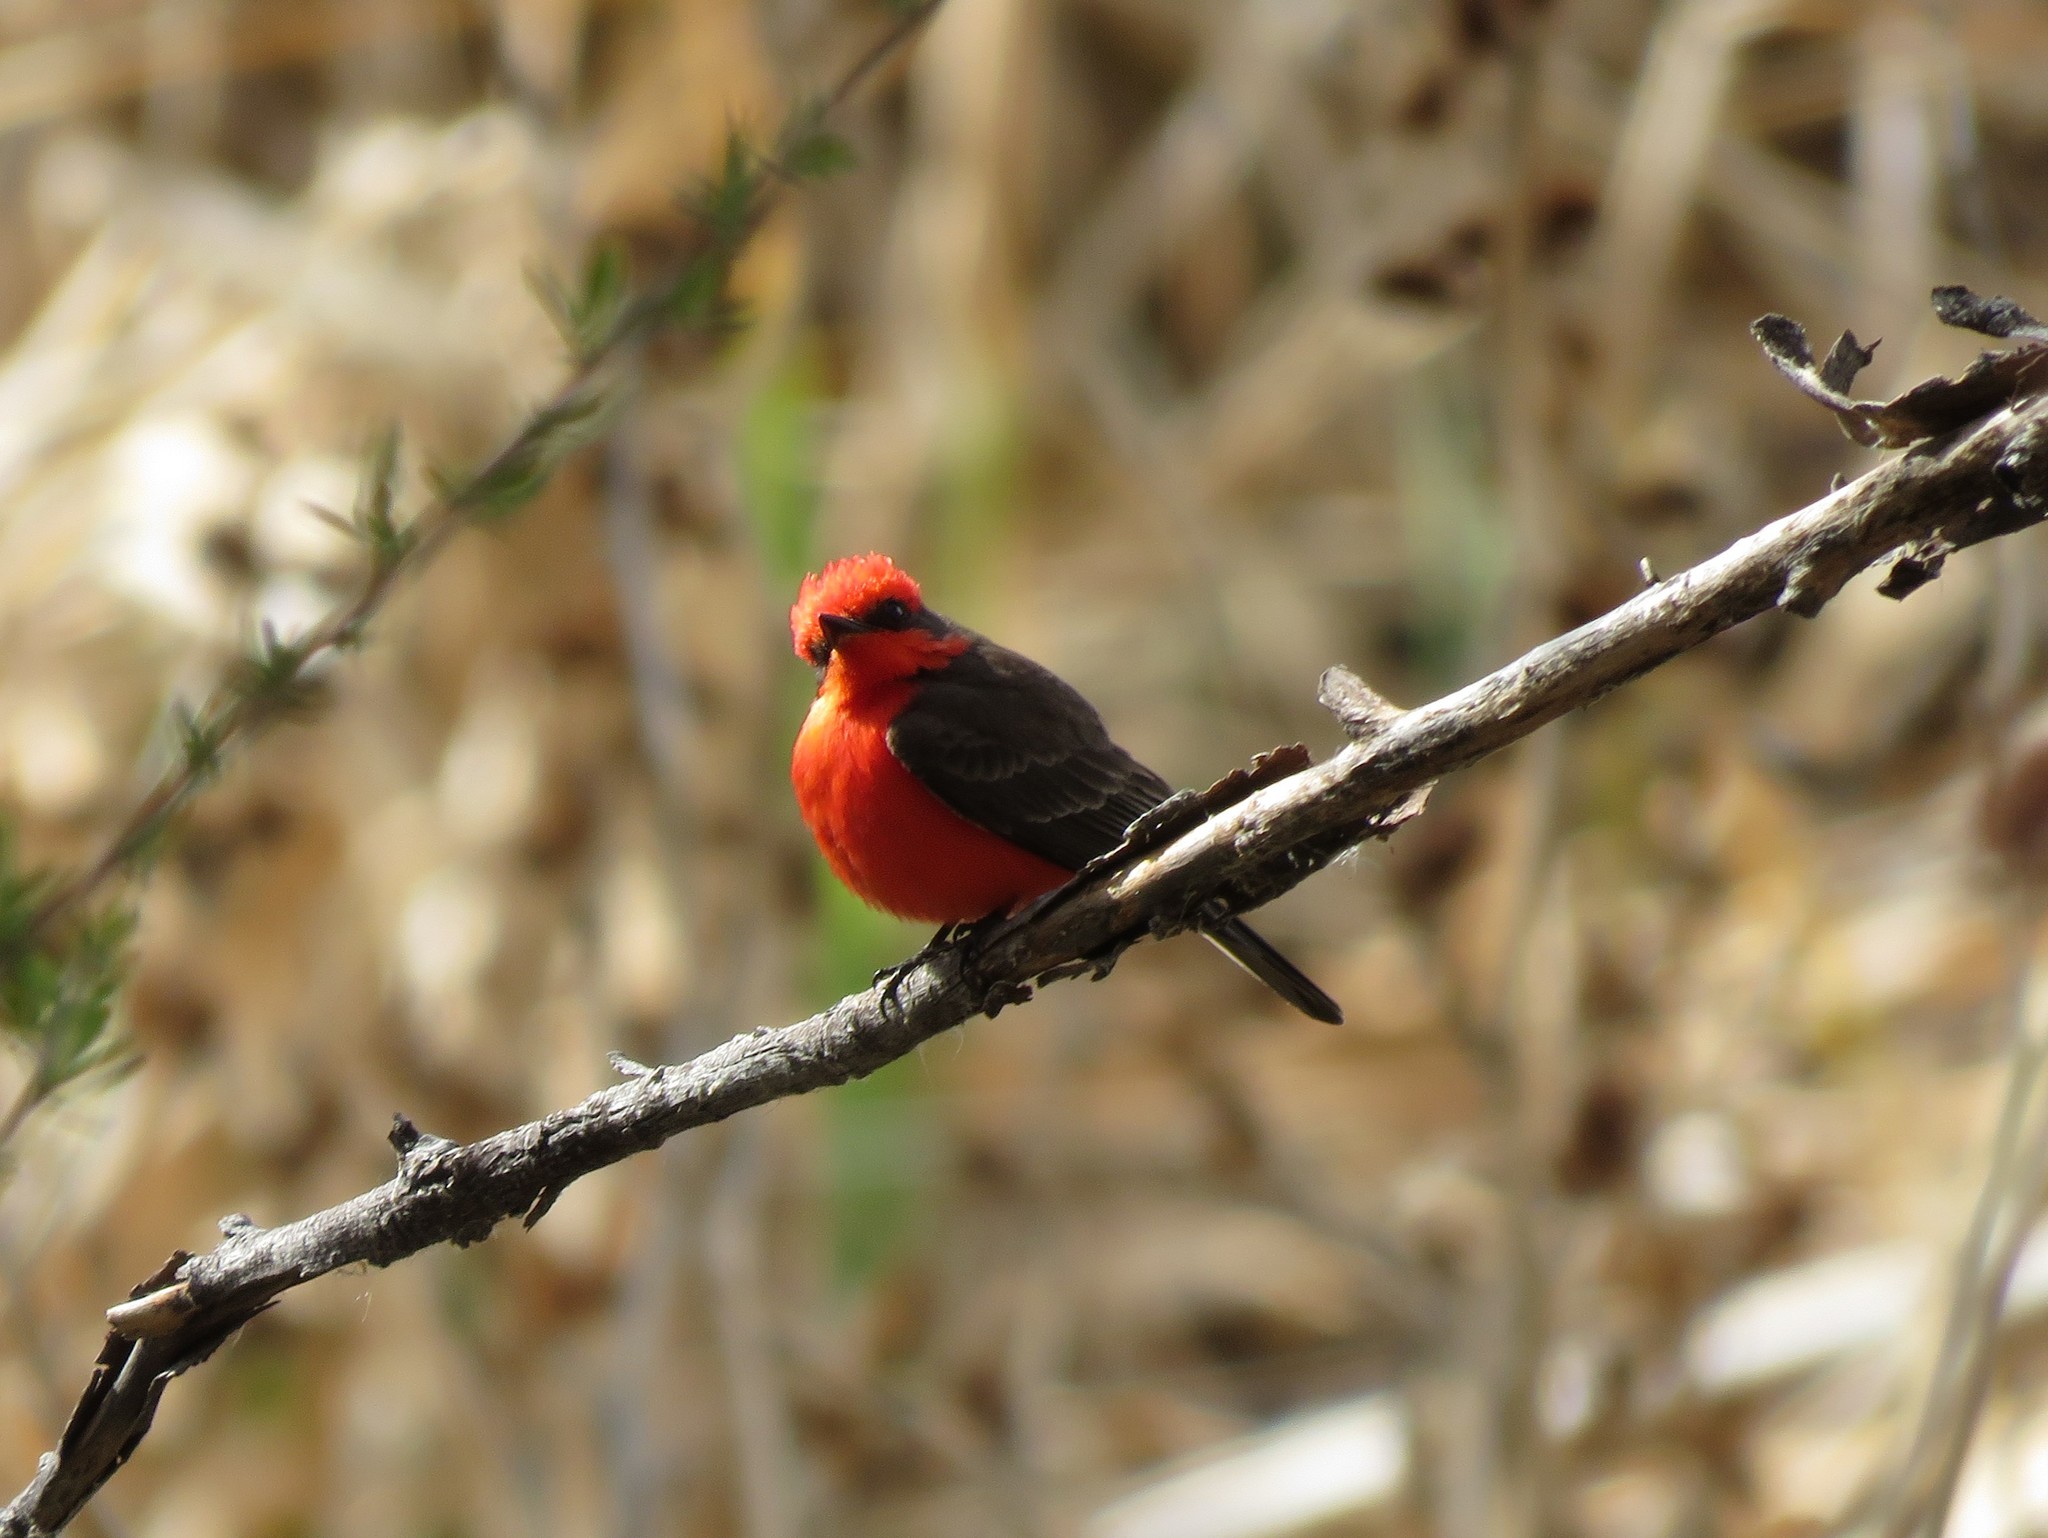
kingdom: Animalia
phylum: Chordata
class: Aves
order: Passeriformes
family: Tyrannidae
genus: Pyrocephalus
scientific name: Pyrocephalus rubinus
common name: Vermilion flycatcher
